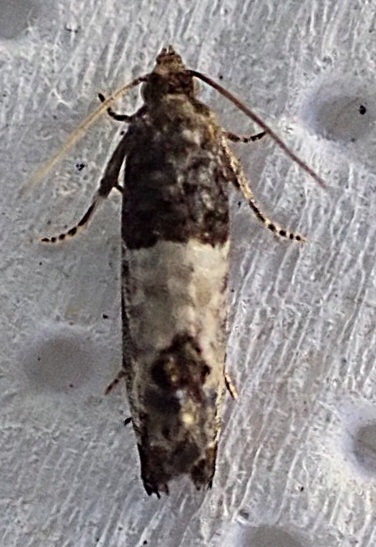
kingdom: Animalia
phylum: Arthropoda
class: Insecta
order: Lepidoptera
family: Tortricidae
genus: Spilonota
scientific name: Spilonota ocellana
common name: Bud moth
